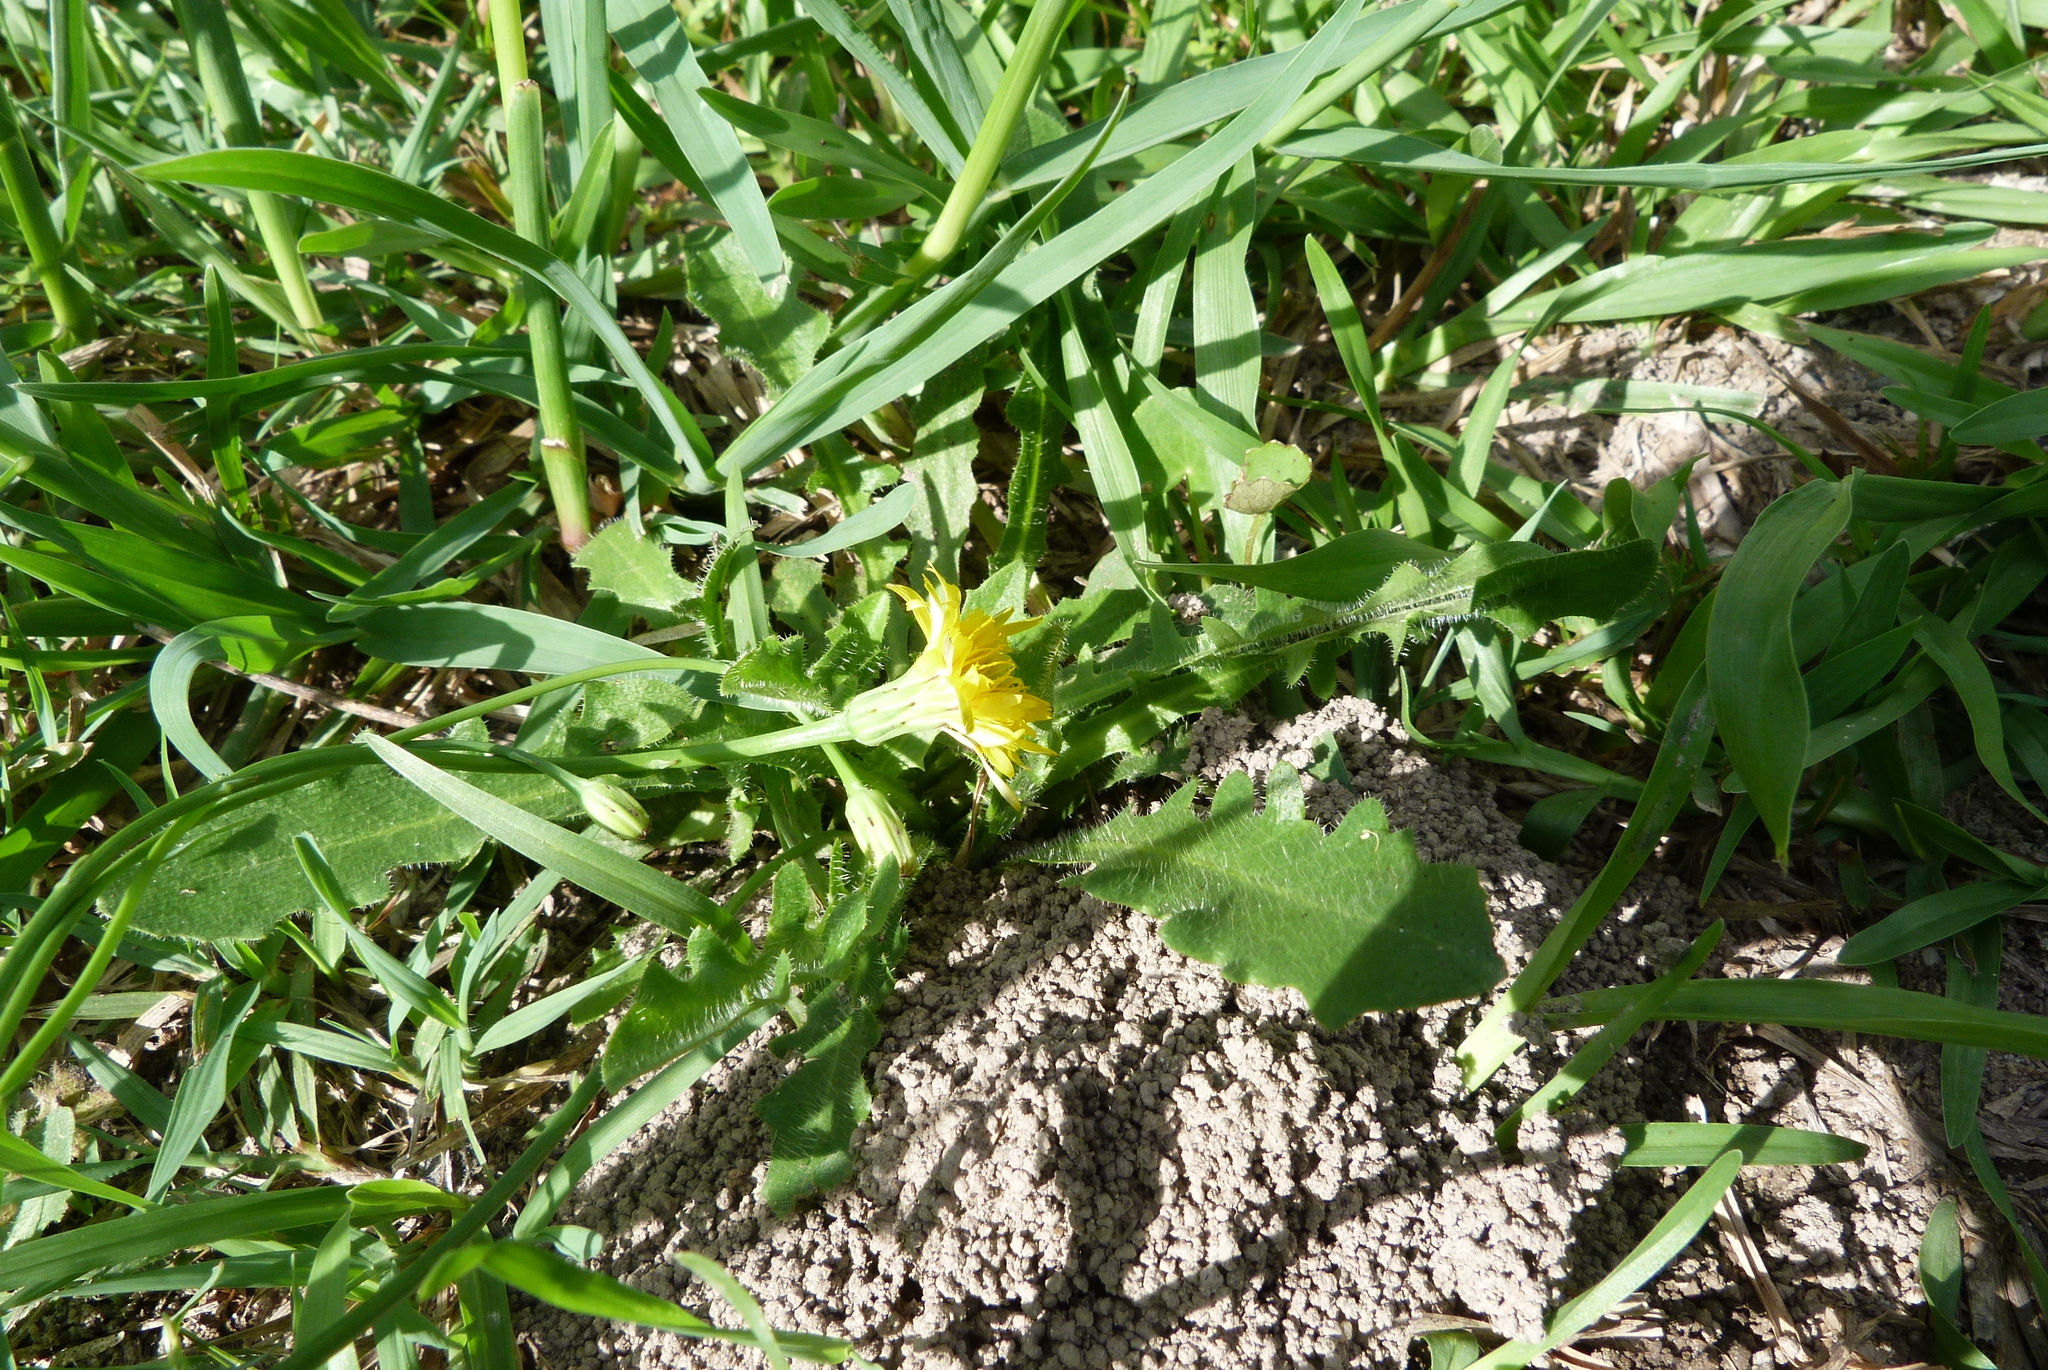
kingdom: Plantae
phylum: Tracheophyta
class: Magnoliopsida
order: Asterales
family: Asteraceae
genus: Hypochaeris
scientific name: Hypochaeris radicata
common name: Flatweed
